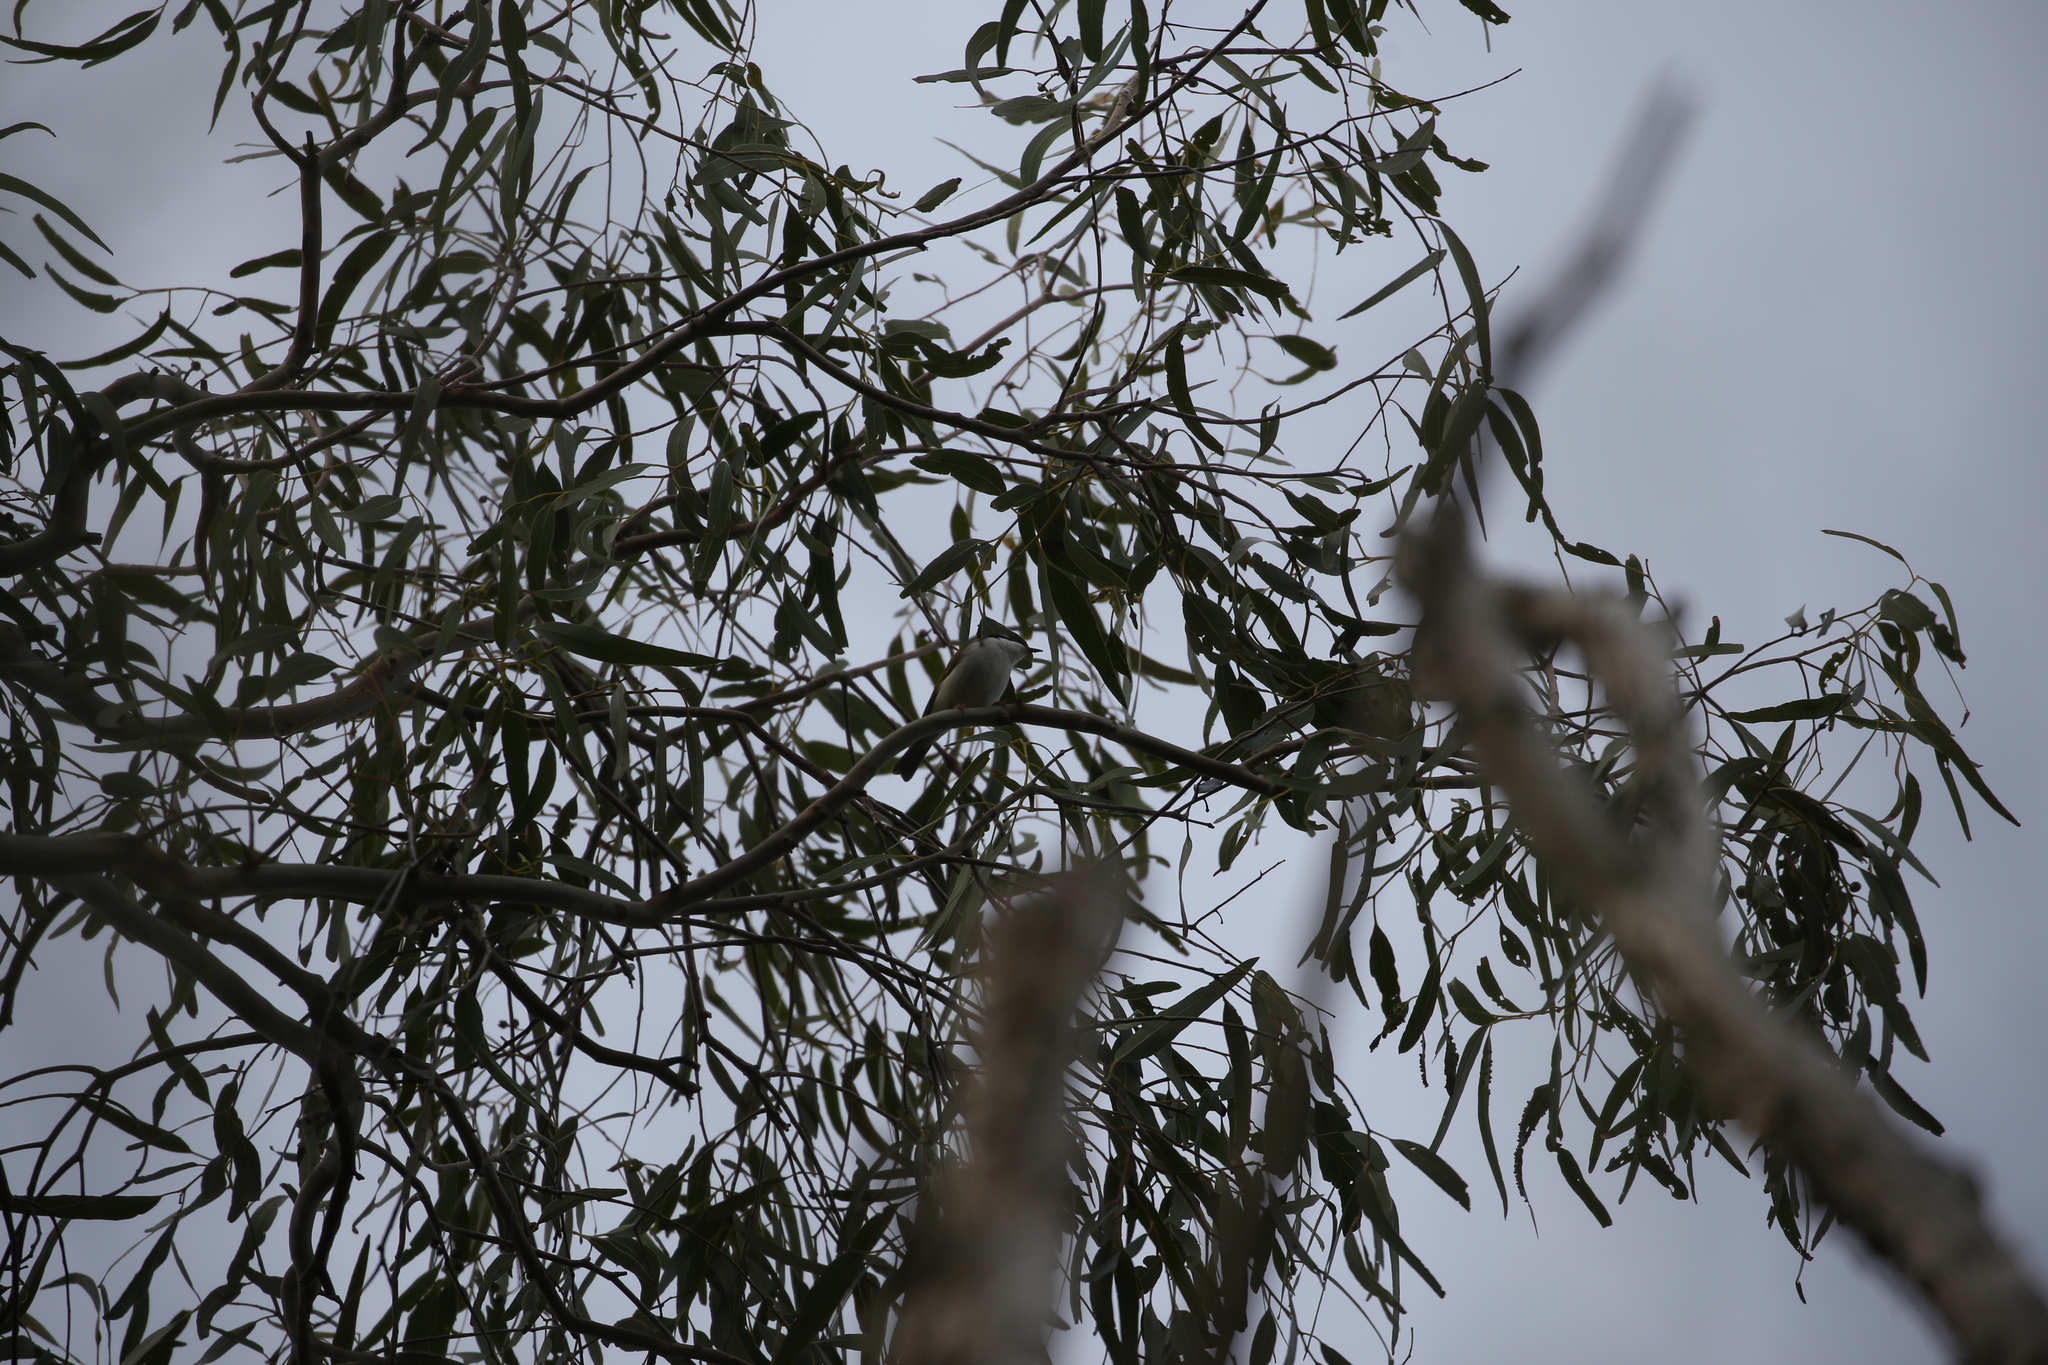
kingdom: Animalia
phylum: Chordata
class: Aves
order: Passeriformes
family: Meliphagidae
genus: Melithreptus
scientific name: Melithreptus albogularis
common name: White-throated honeyeater
